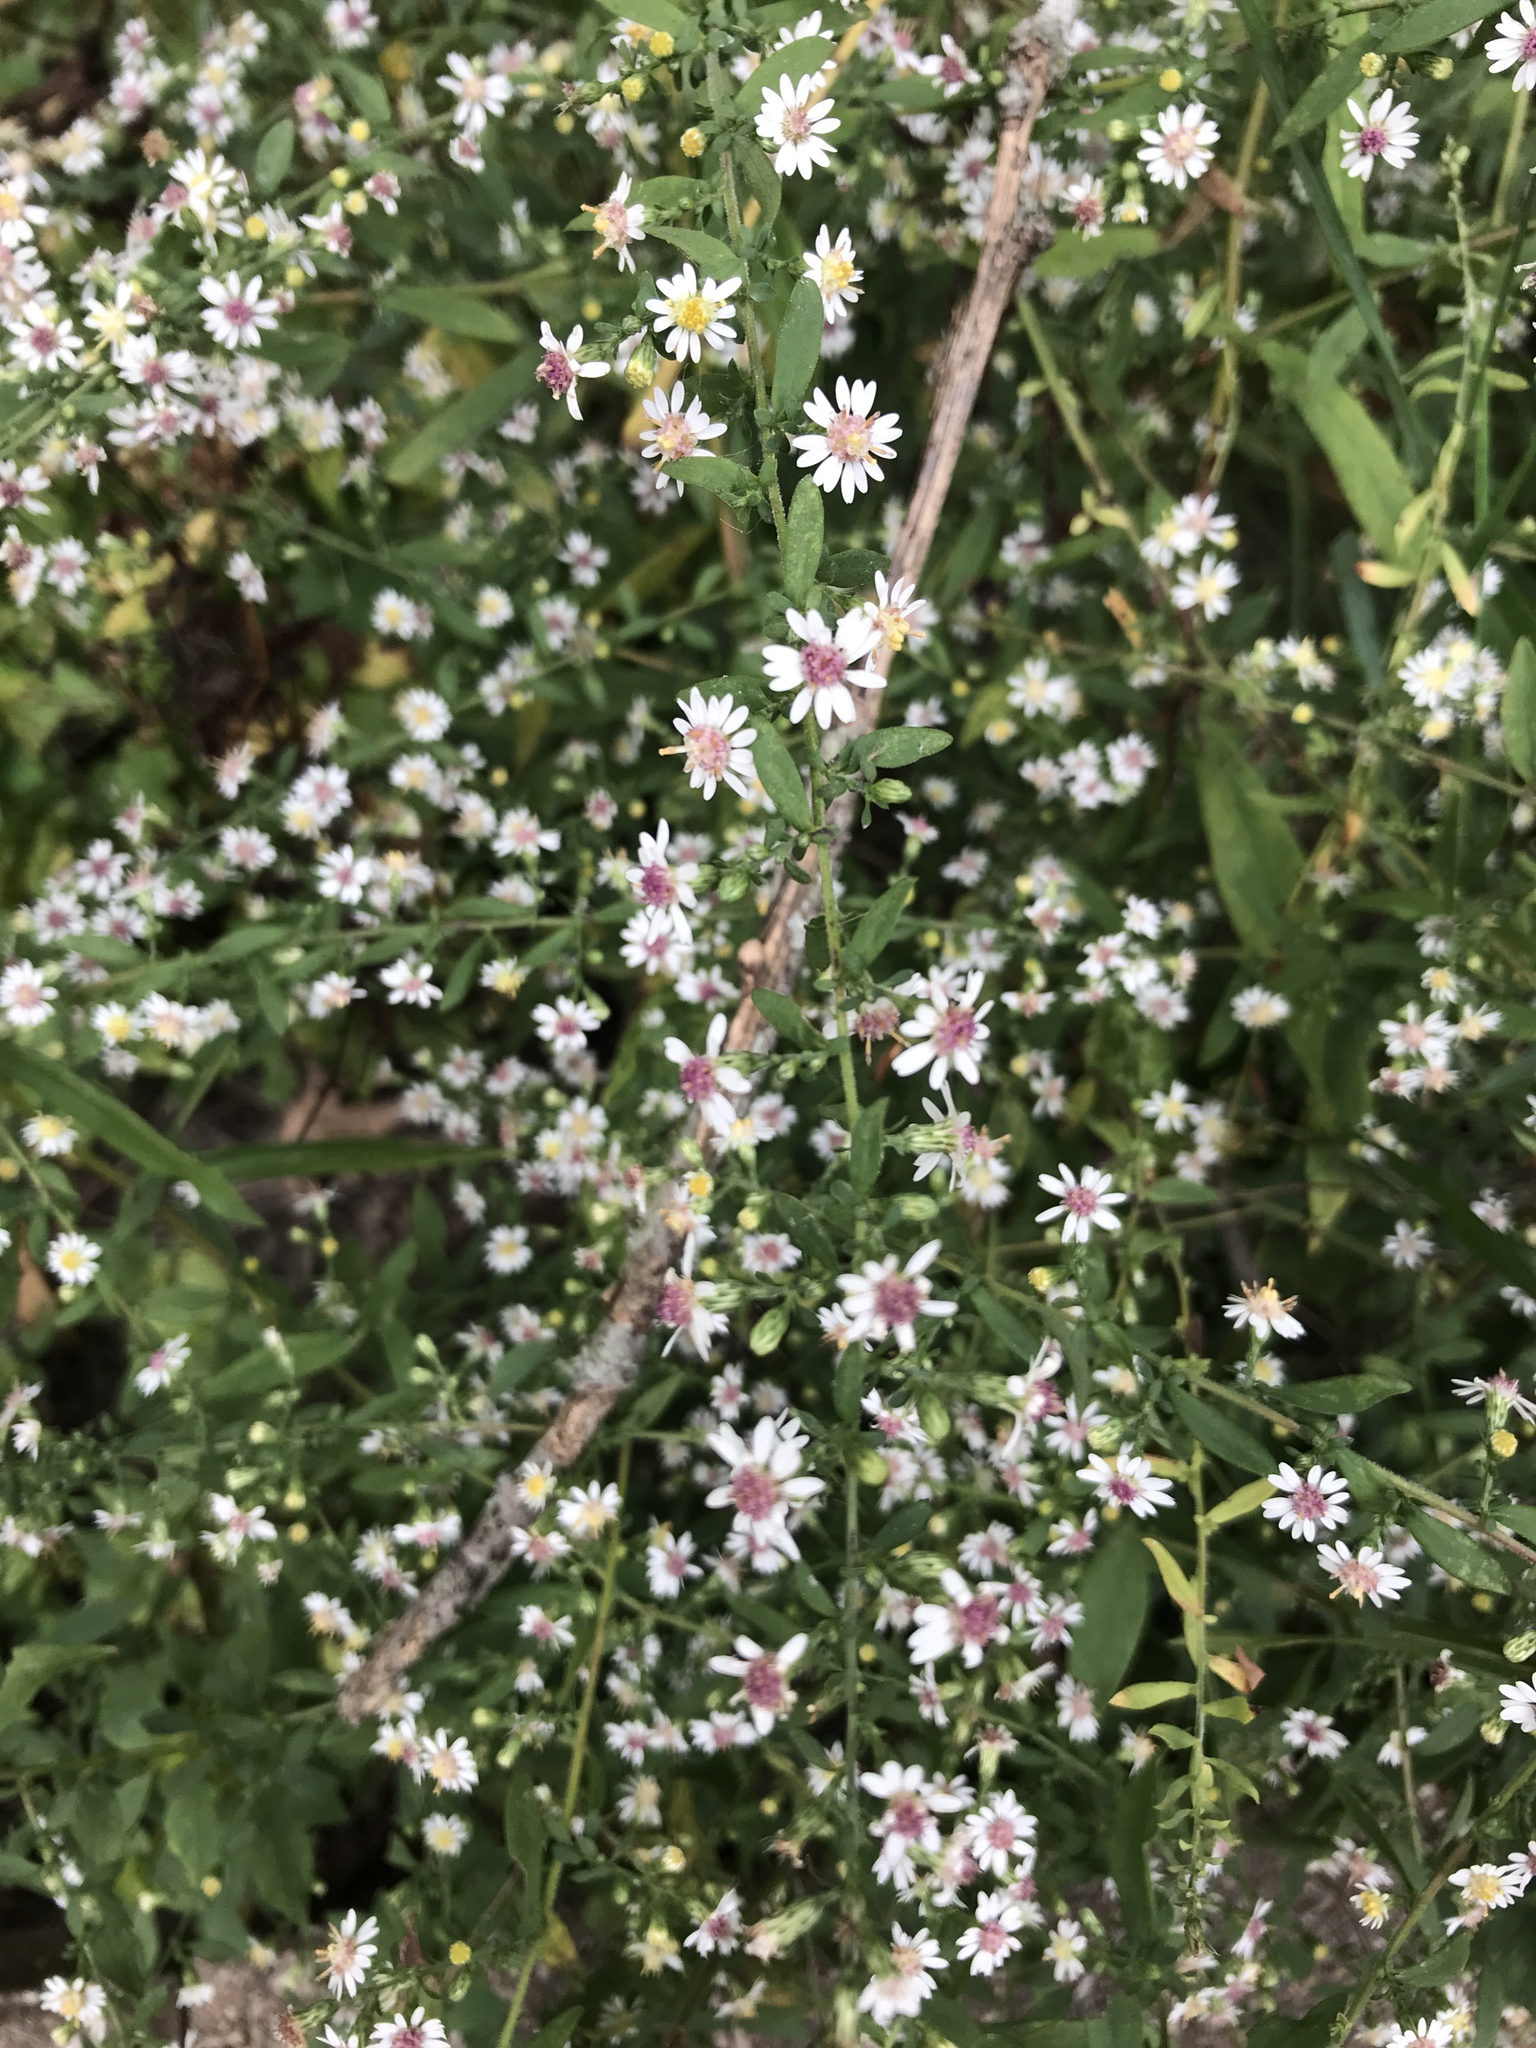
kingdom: Plantae
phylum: Tracheophyta
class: Magnoliopsida
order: Asterales
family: Asteraceae
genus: Symphyotrichum
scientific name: Symphyotrichum lateriflorum
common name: Calico aster
